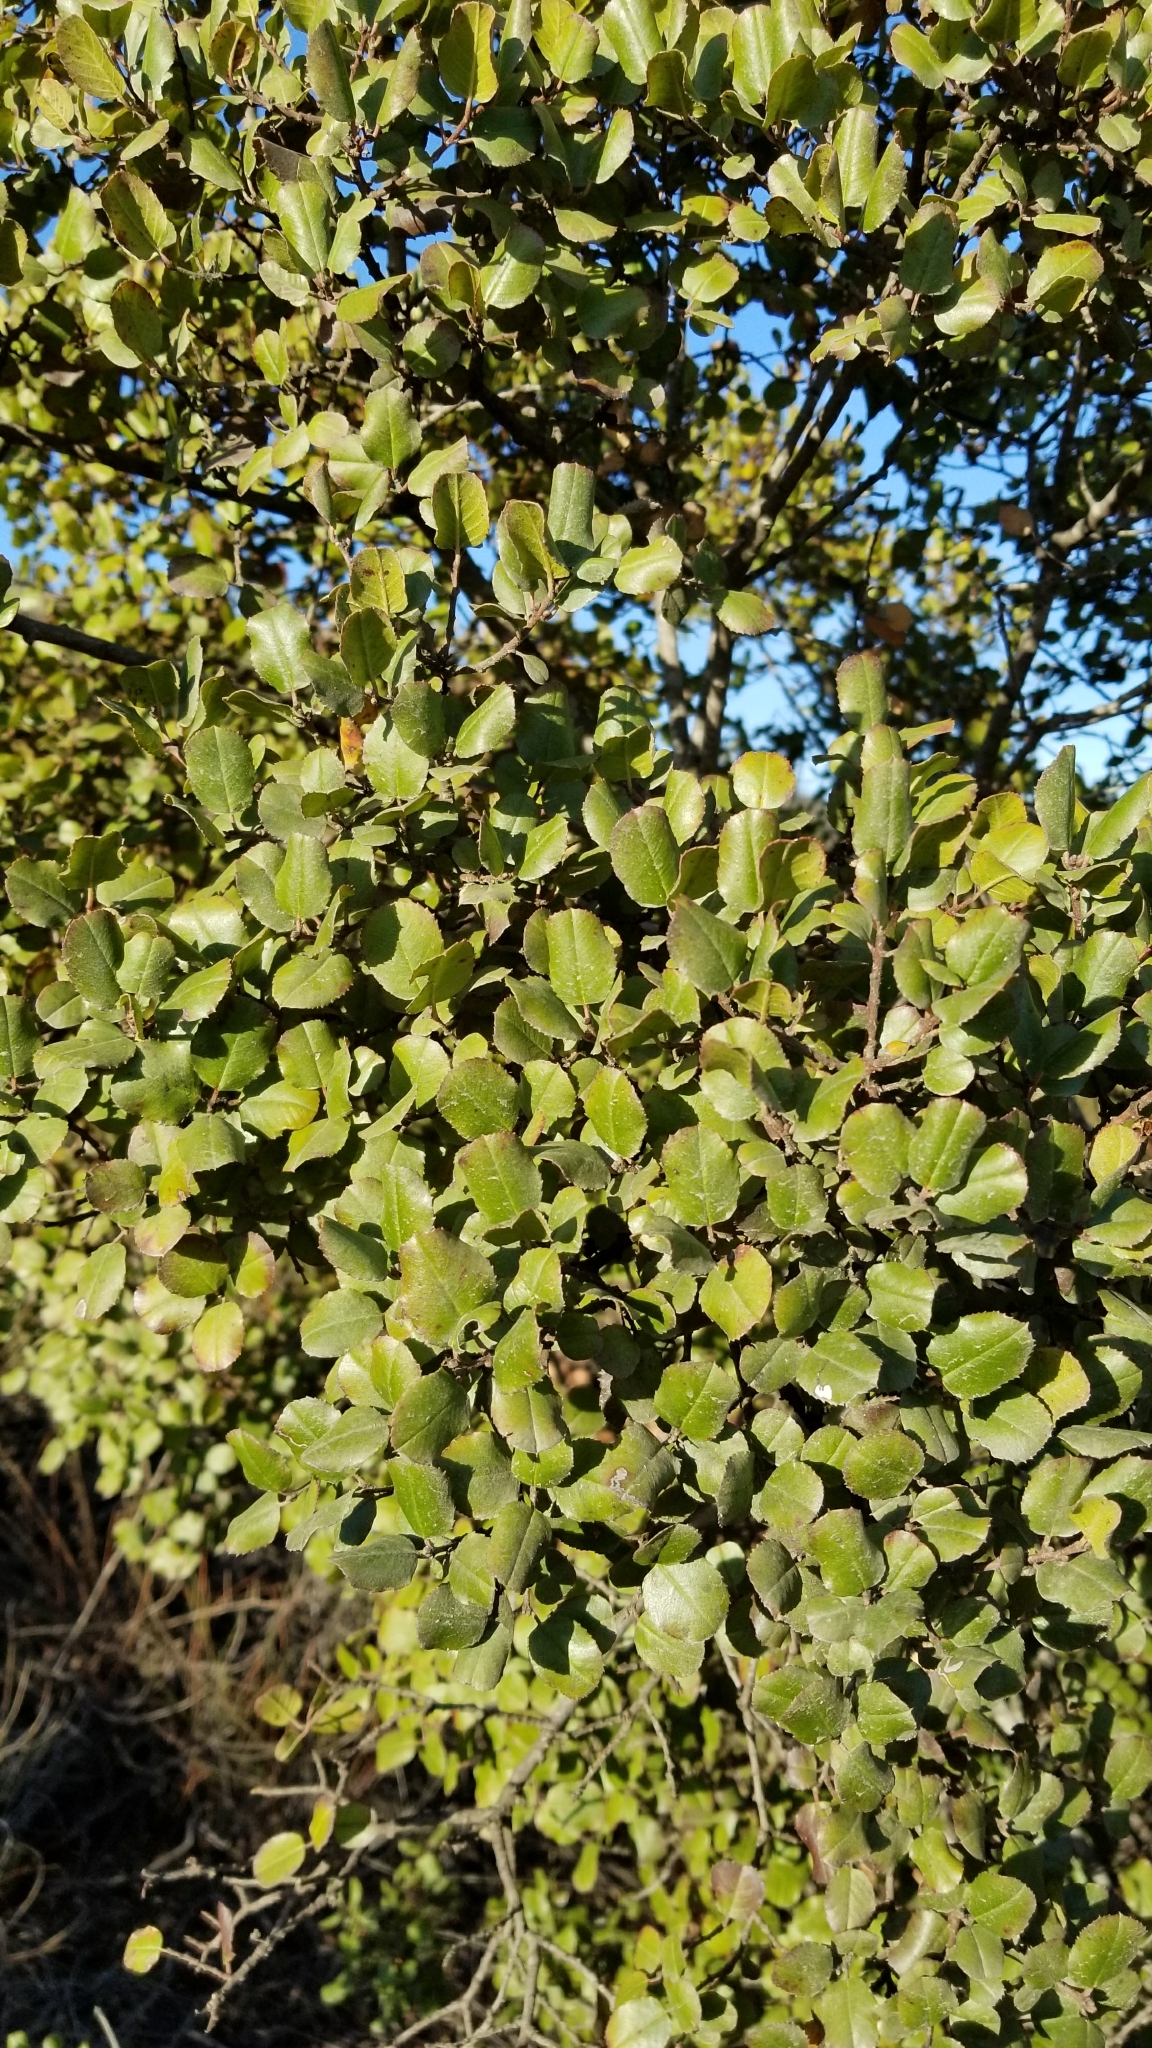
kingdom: Plantae
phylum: Tracheophyta
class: Magnoliopsida
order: Rosales
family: Rhamnaceae
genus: Endotropis
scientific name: Endotropis crocea
